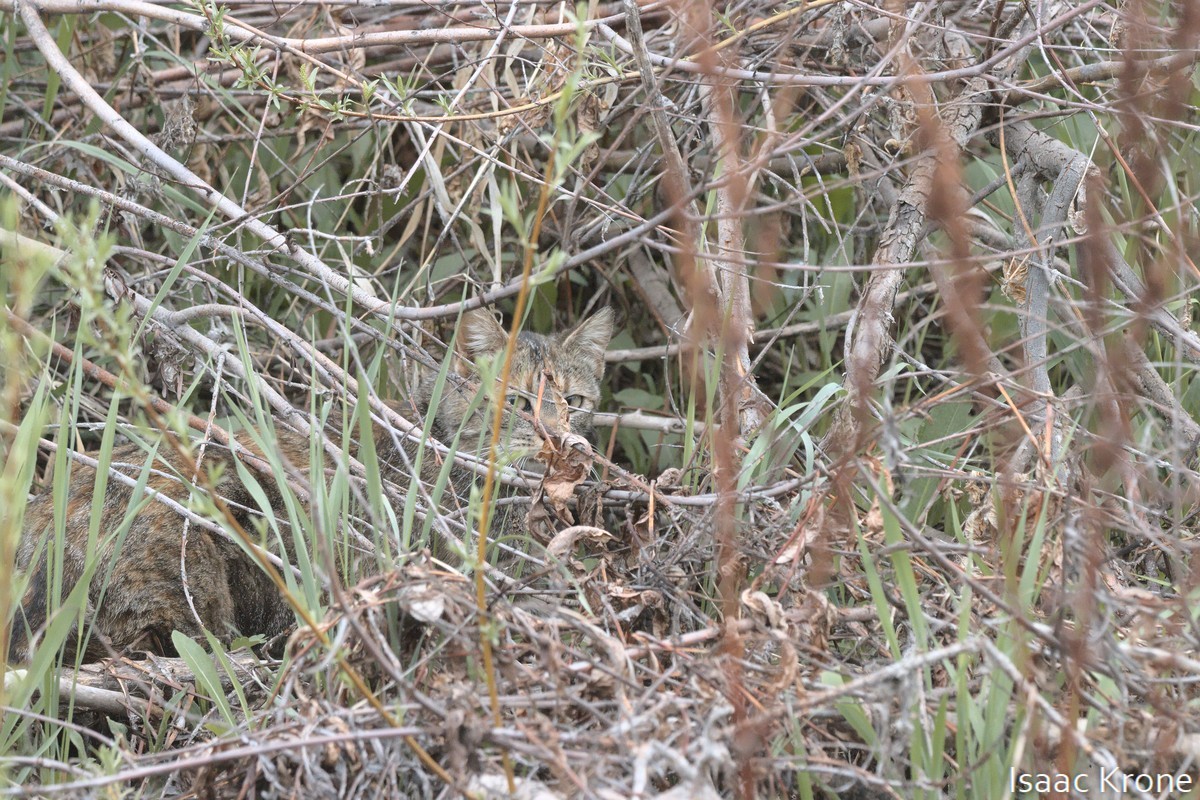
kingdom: Animalia
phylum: Chordata
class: Mammalia
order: Carnivora
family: Felidae
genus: Felis
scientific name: Felis catus
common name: Domestic cat
